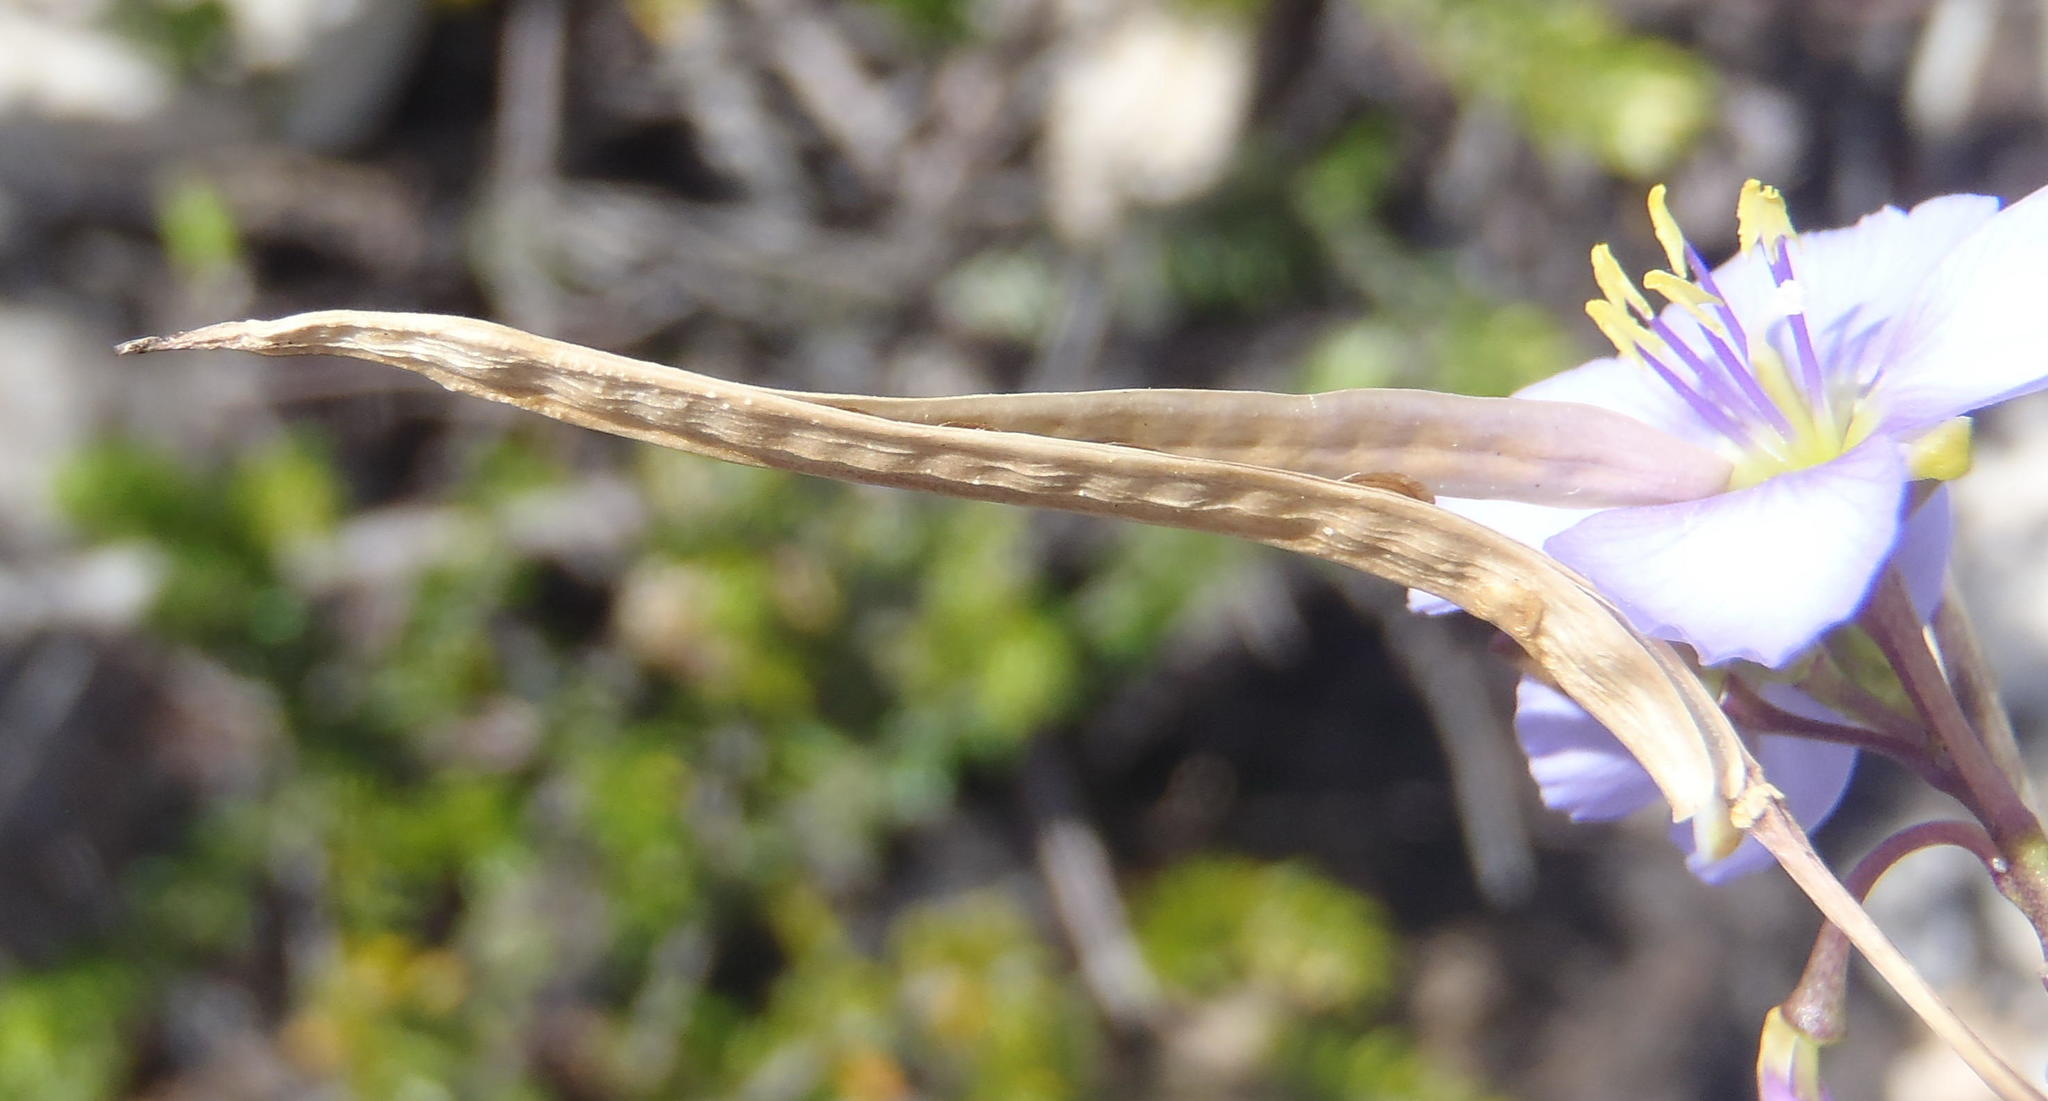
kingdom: Plantae
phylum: Tracheophyta
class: Magnoliopsida
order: Brassicales
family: Brassicaceae
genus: Heliophila
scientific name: Heliophila subulata
